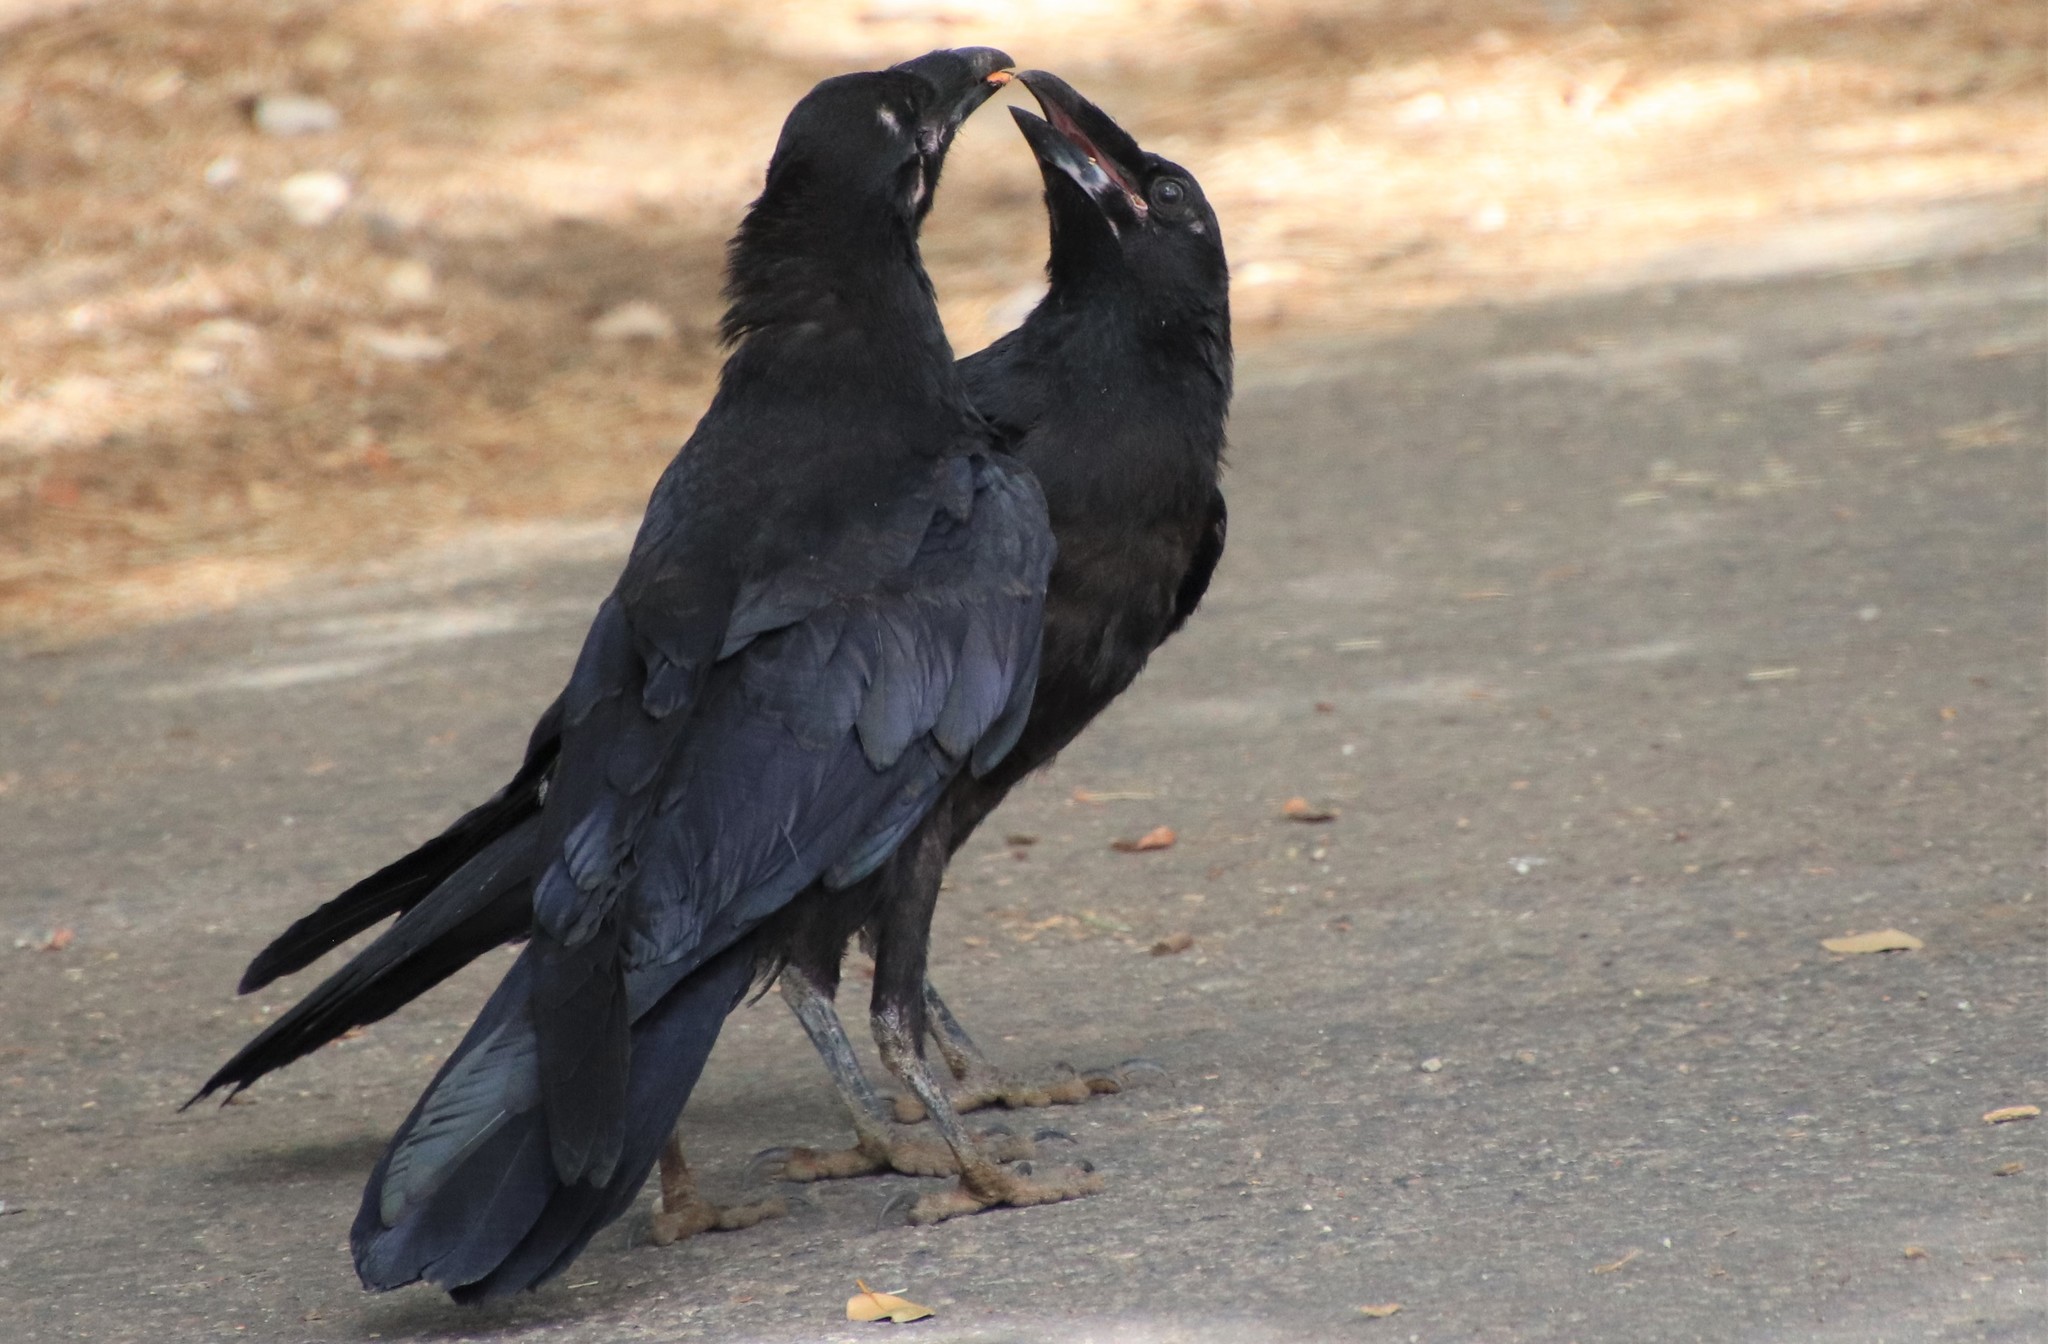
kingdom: Animalia
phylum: Chordata
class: Aves
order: Passeriformes
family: Corvidae
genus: Corvus
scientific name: Corvus corax
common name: Common raven
